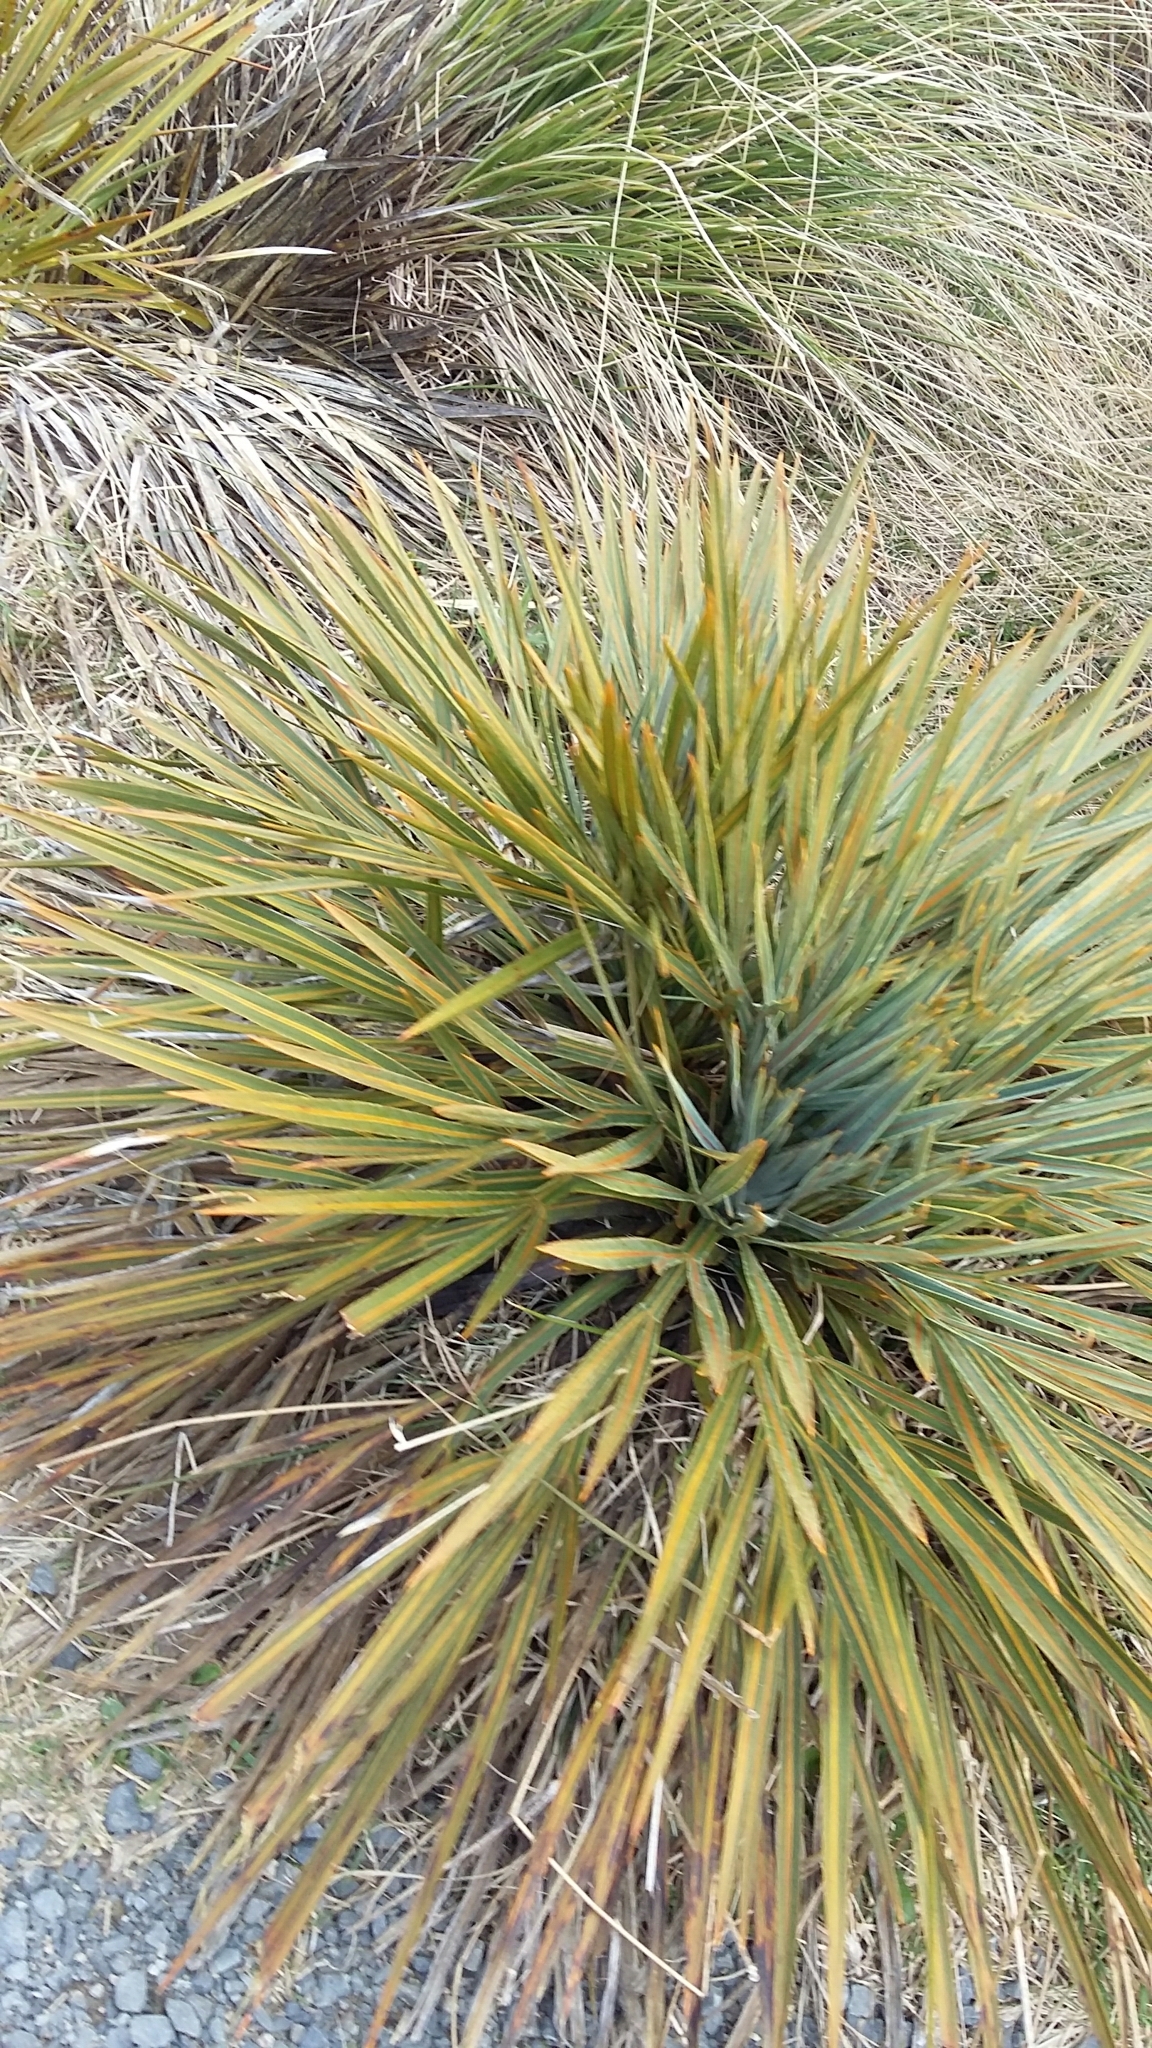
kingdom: Plantae
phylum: Tracheophyta
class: Magnoliopsida
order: Apiales
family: Apiaceae
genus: Aciphylla
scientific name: Aciphylla colensoi
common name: Colenso's spaniard
